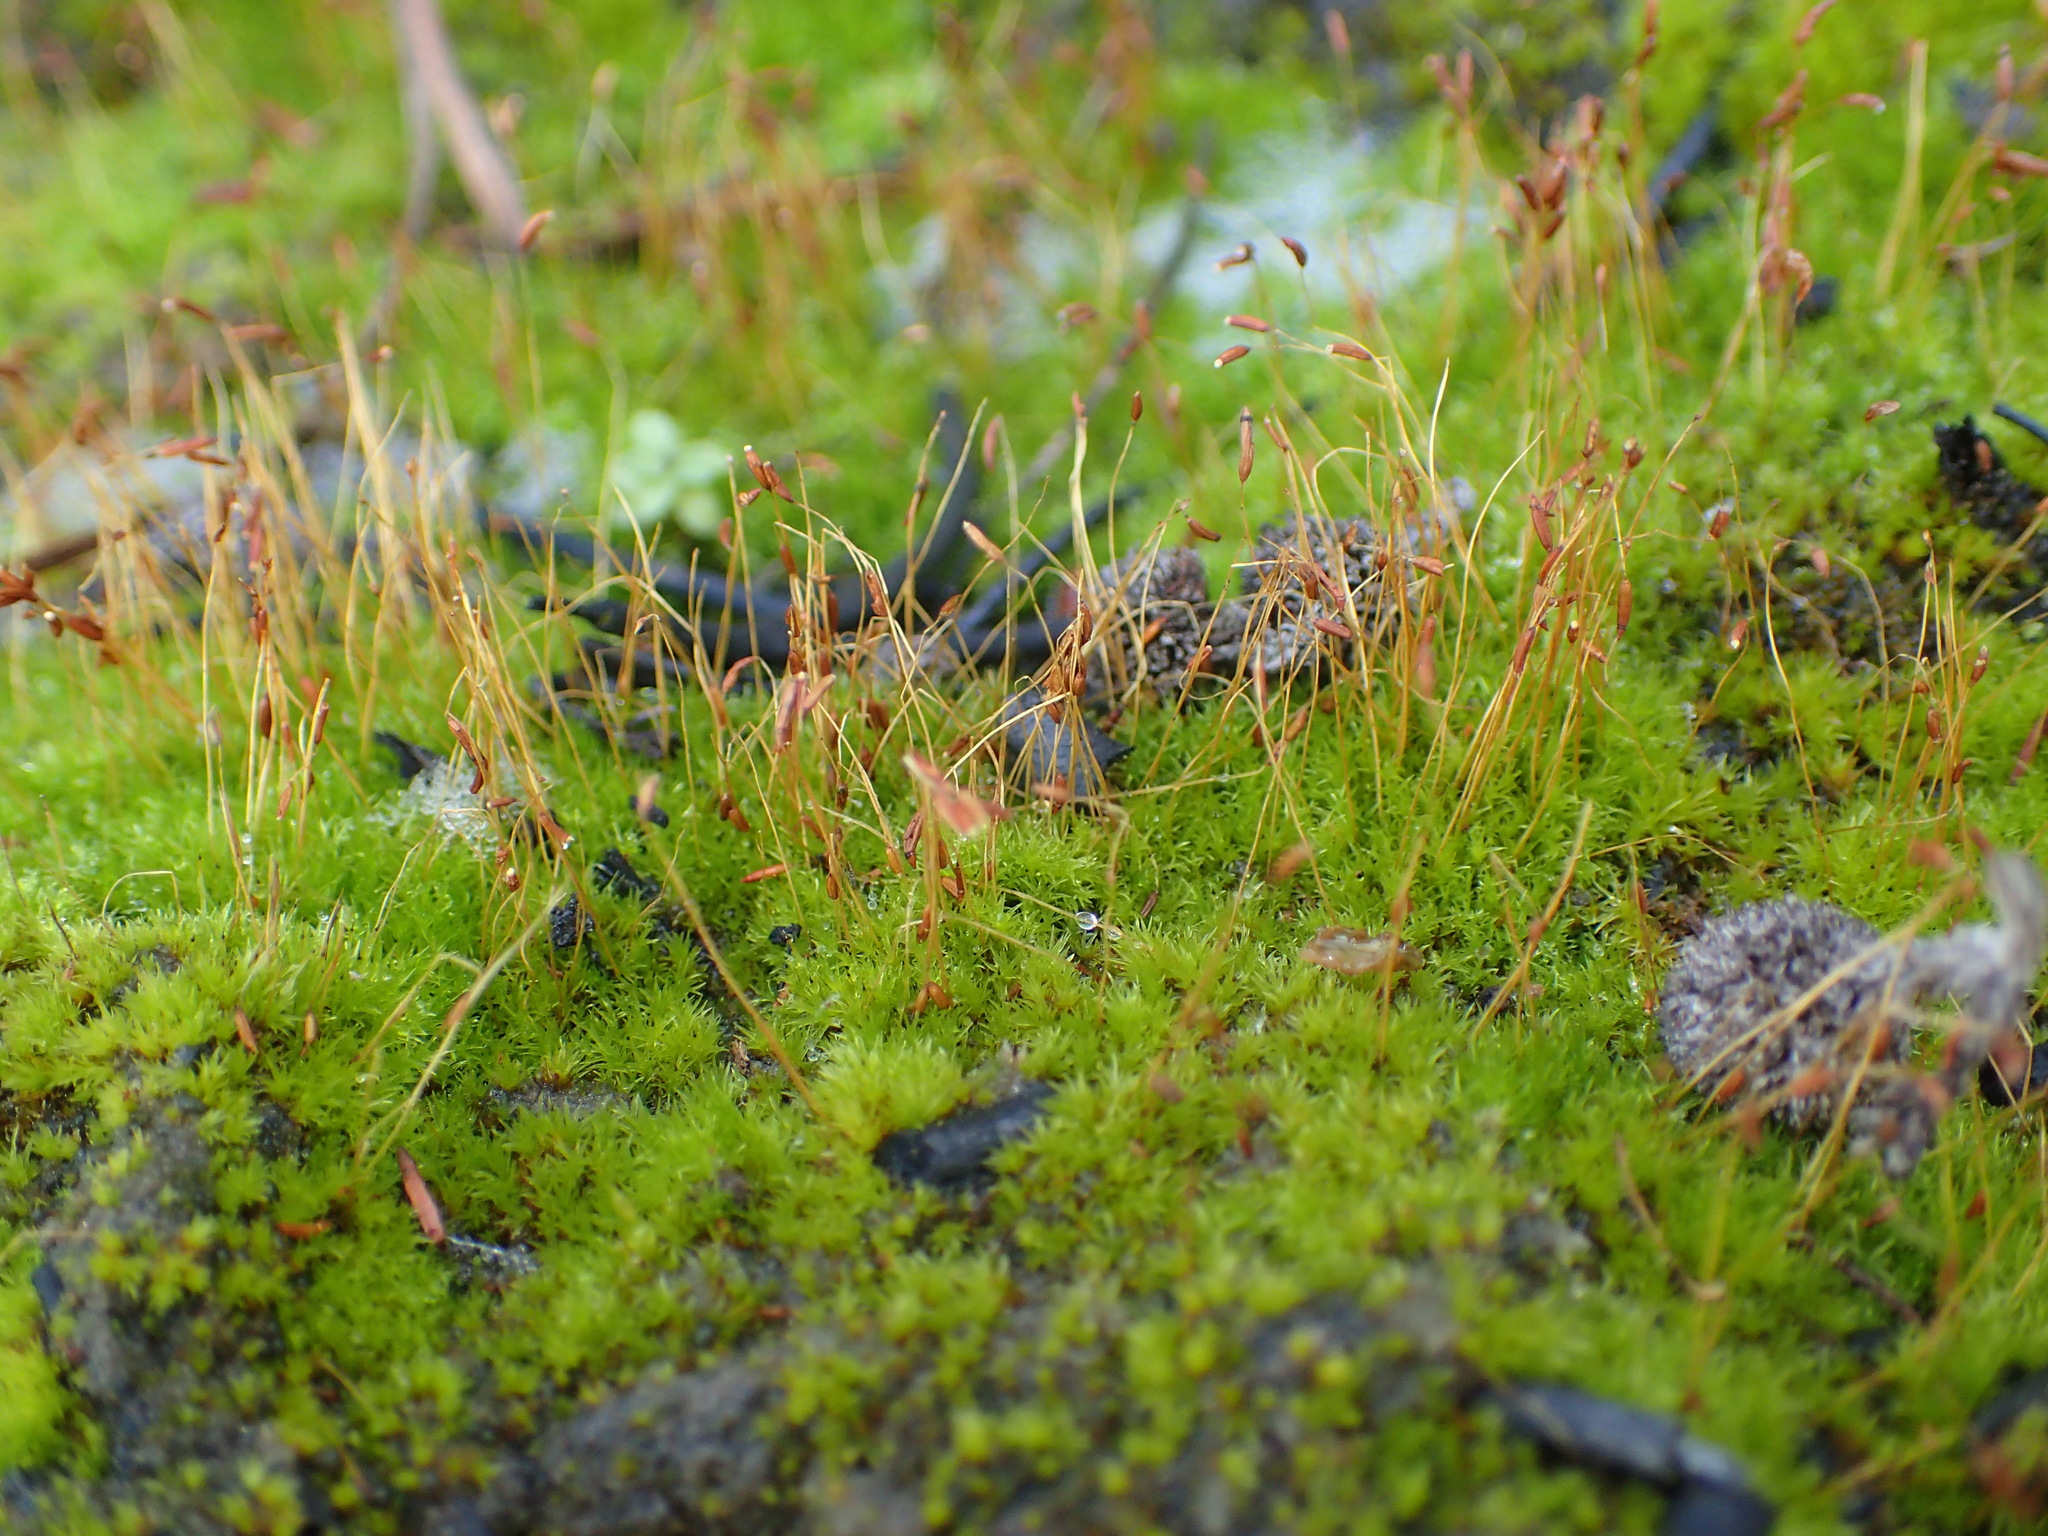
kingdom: Plantae
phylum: Bryophyta
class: Bryopsida
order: Dicranales
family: Ditrichaceae
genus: Ceratodon
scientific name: Ceratodon purpureus
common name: Redshank
